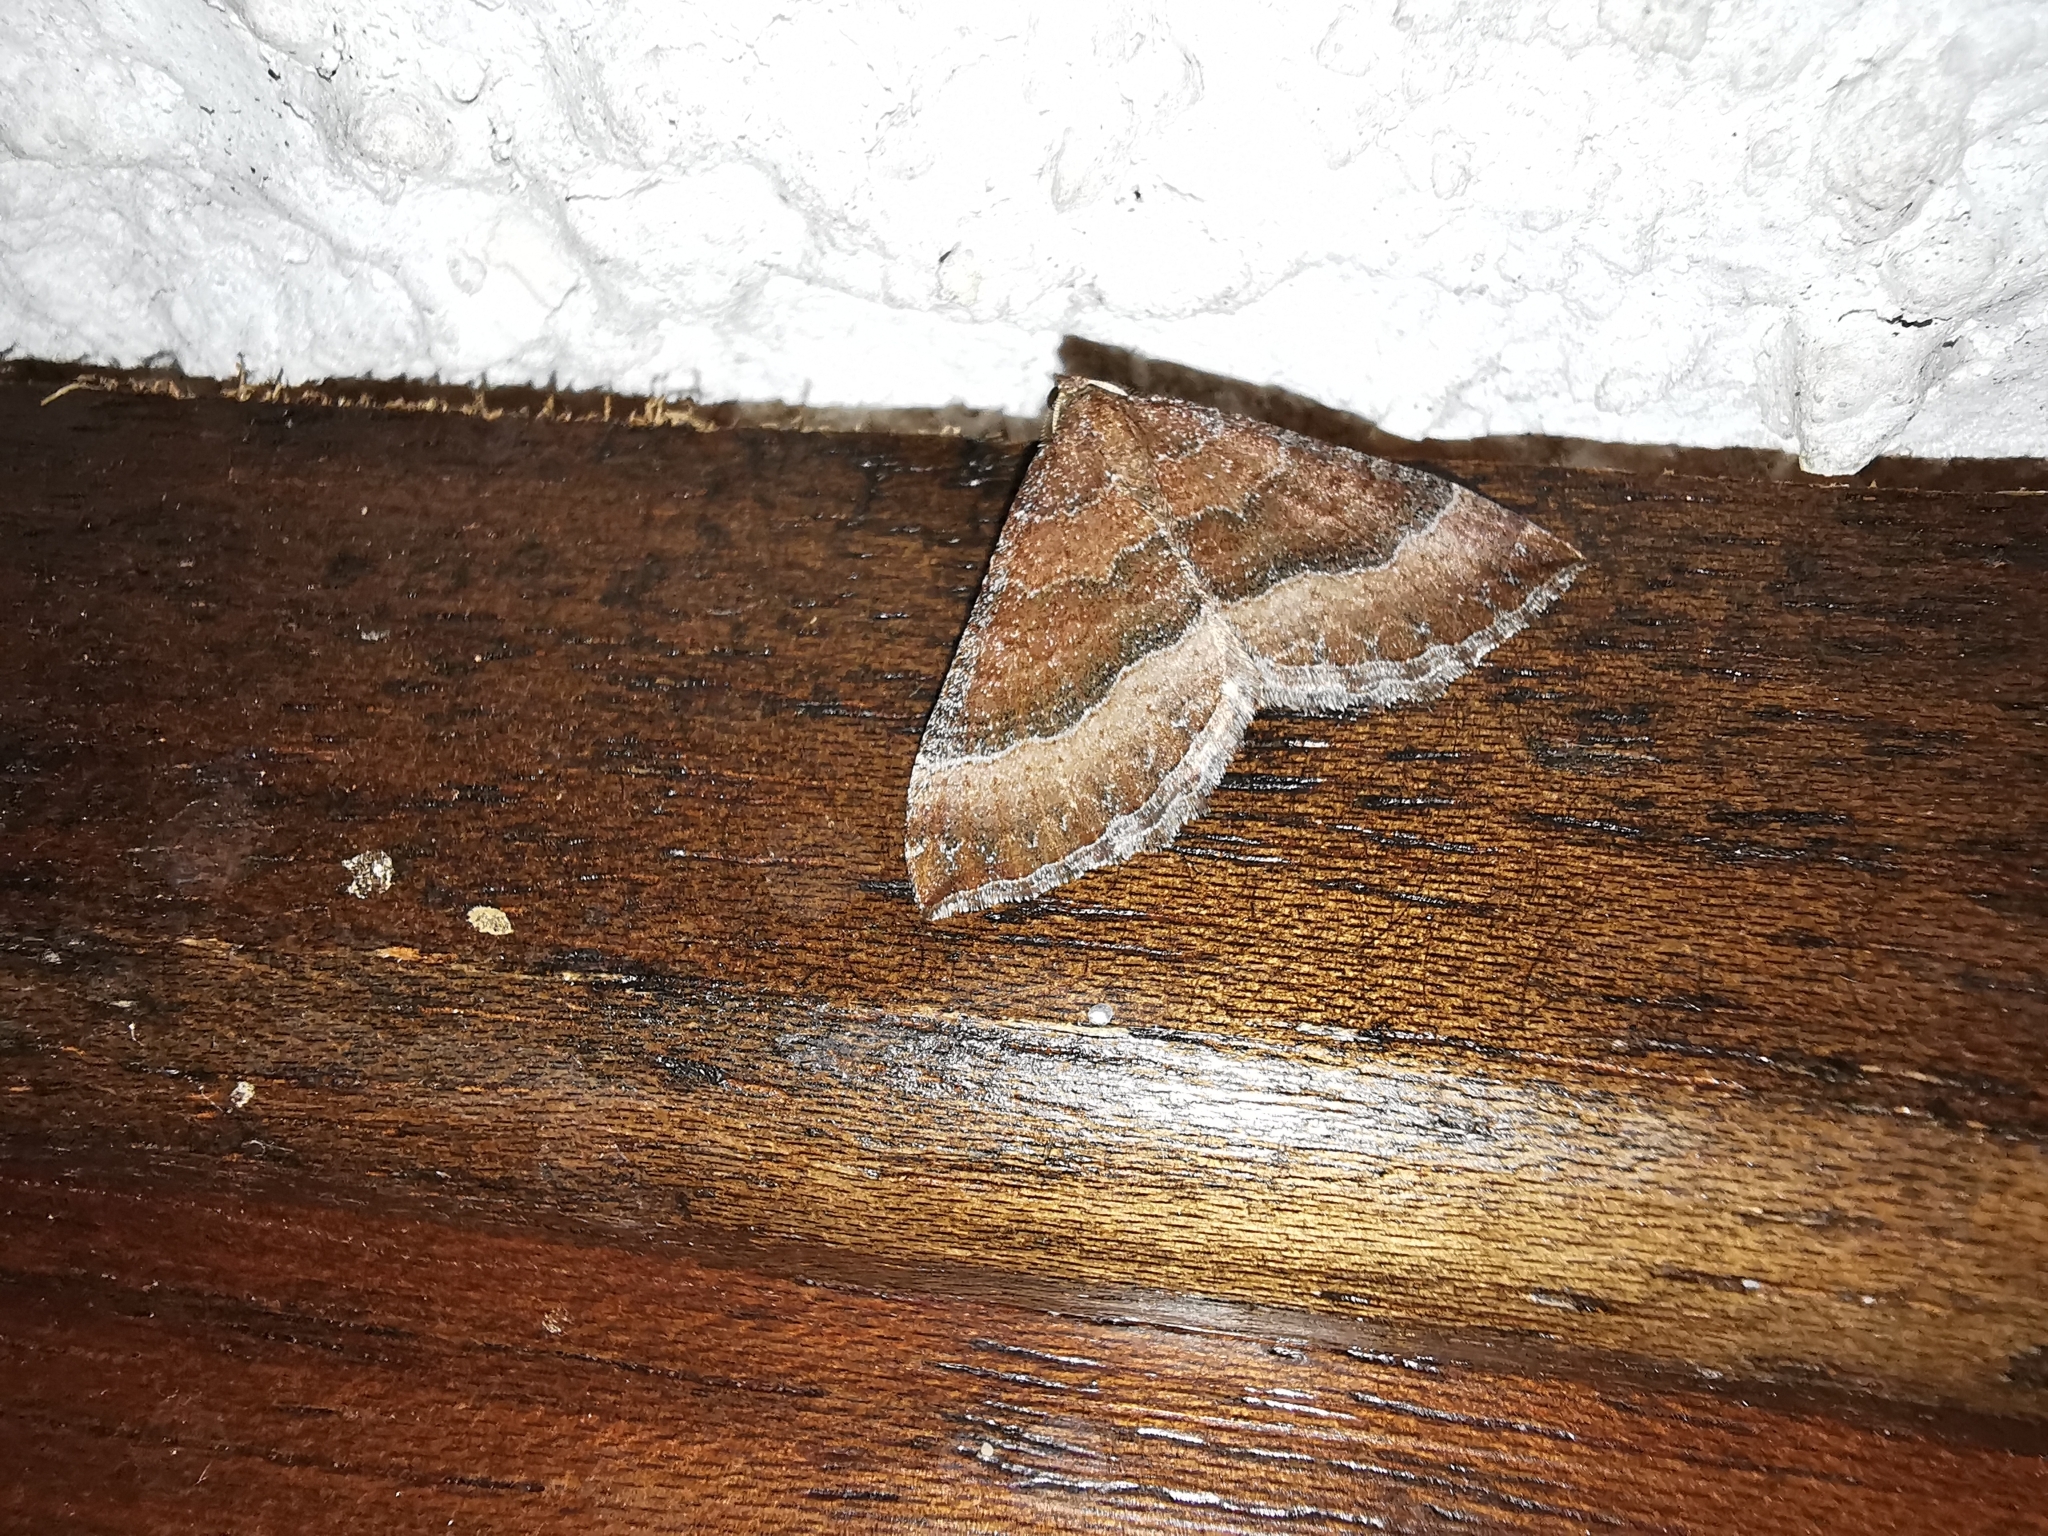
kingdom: Animalia
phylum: Arthropoda
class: Insecta
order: Lepidoptera
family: Geometridae
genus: Larentia
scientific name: Larentia clavaria
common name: Mallow
